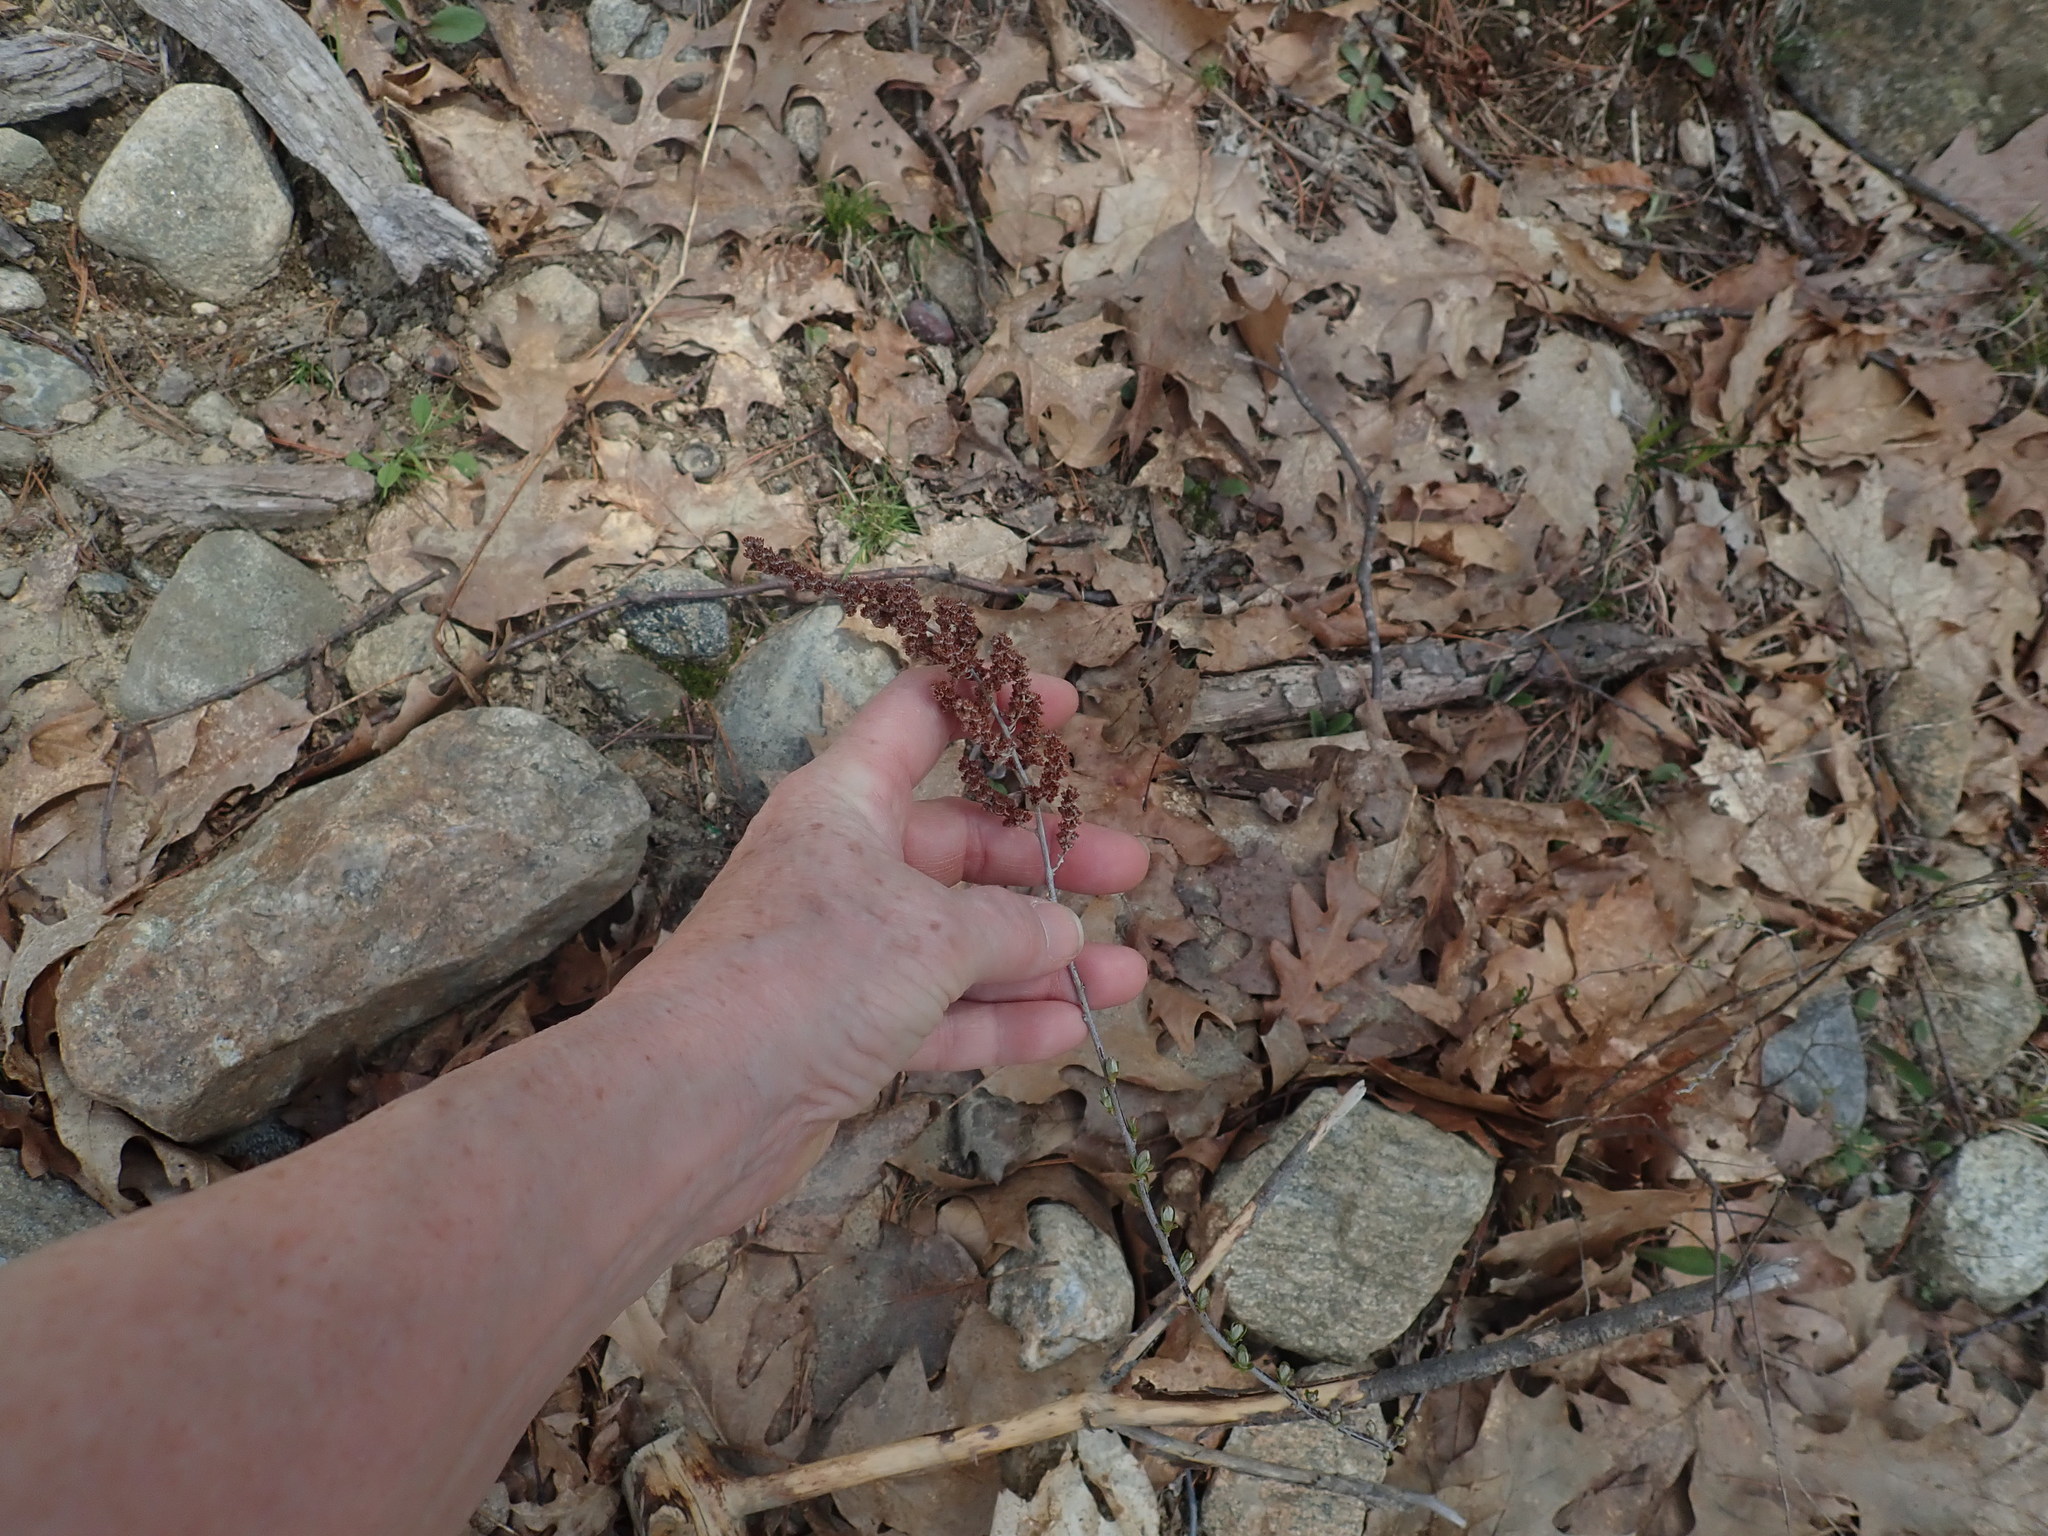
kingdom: Plantae
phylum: Tracheophyta
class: Magnoliopsida
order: Rosales
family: Rosaceae
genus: Spiraea
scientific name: Spiraea tomentosa
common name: Hardhack
